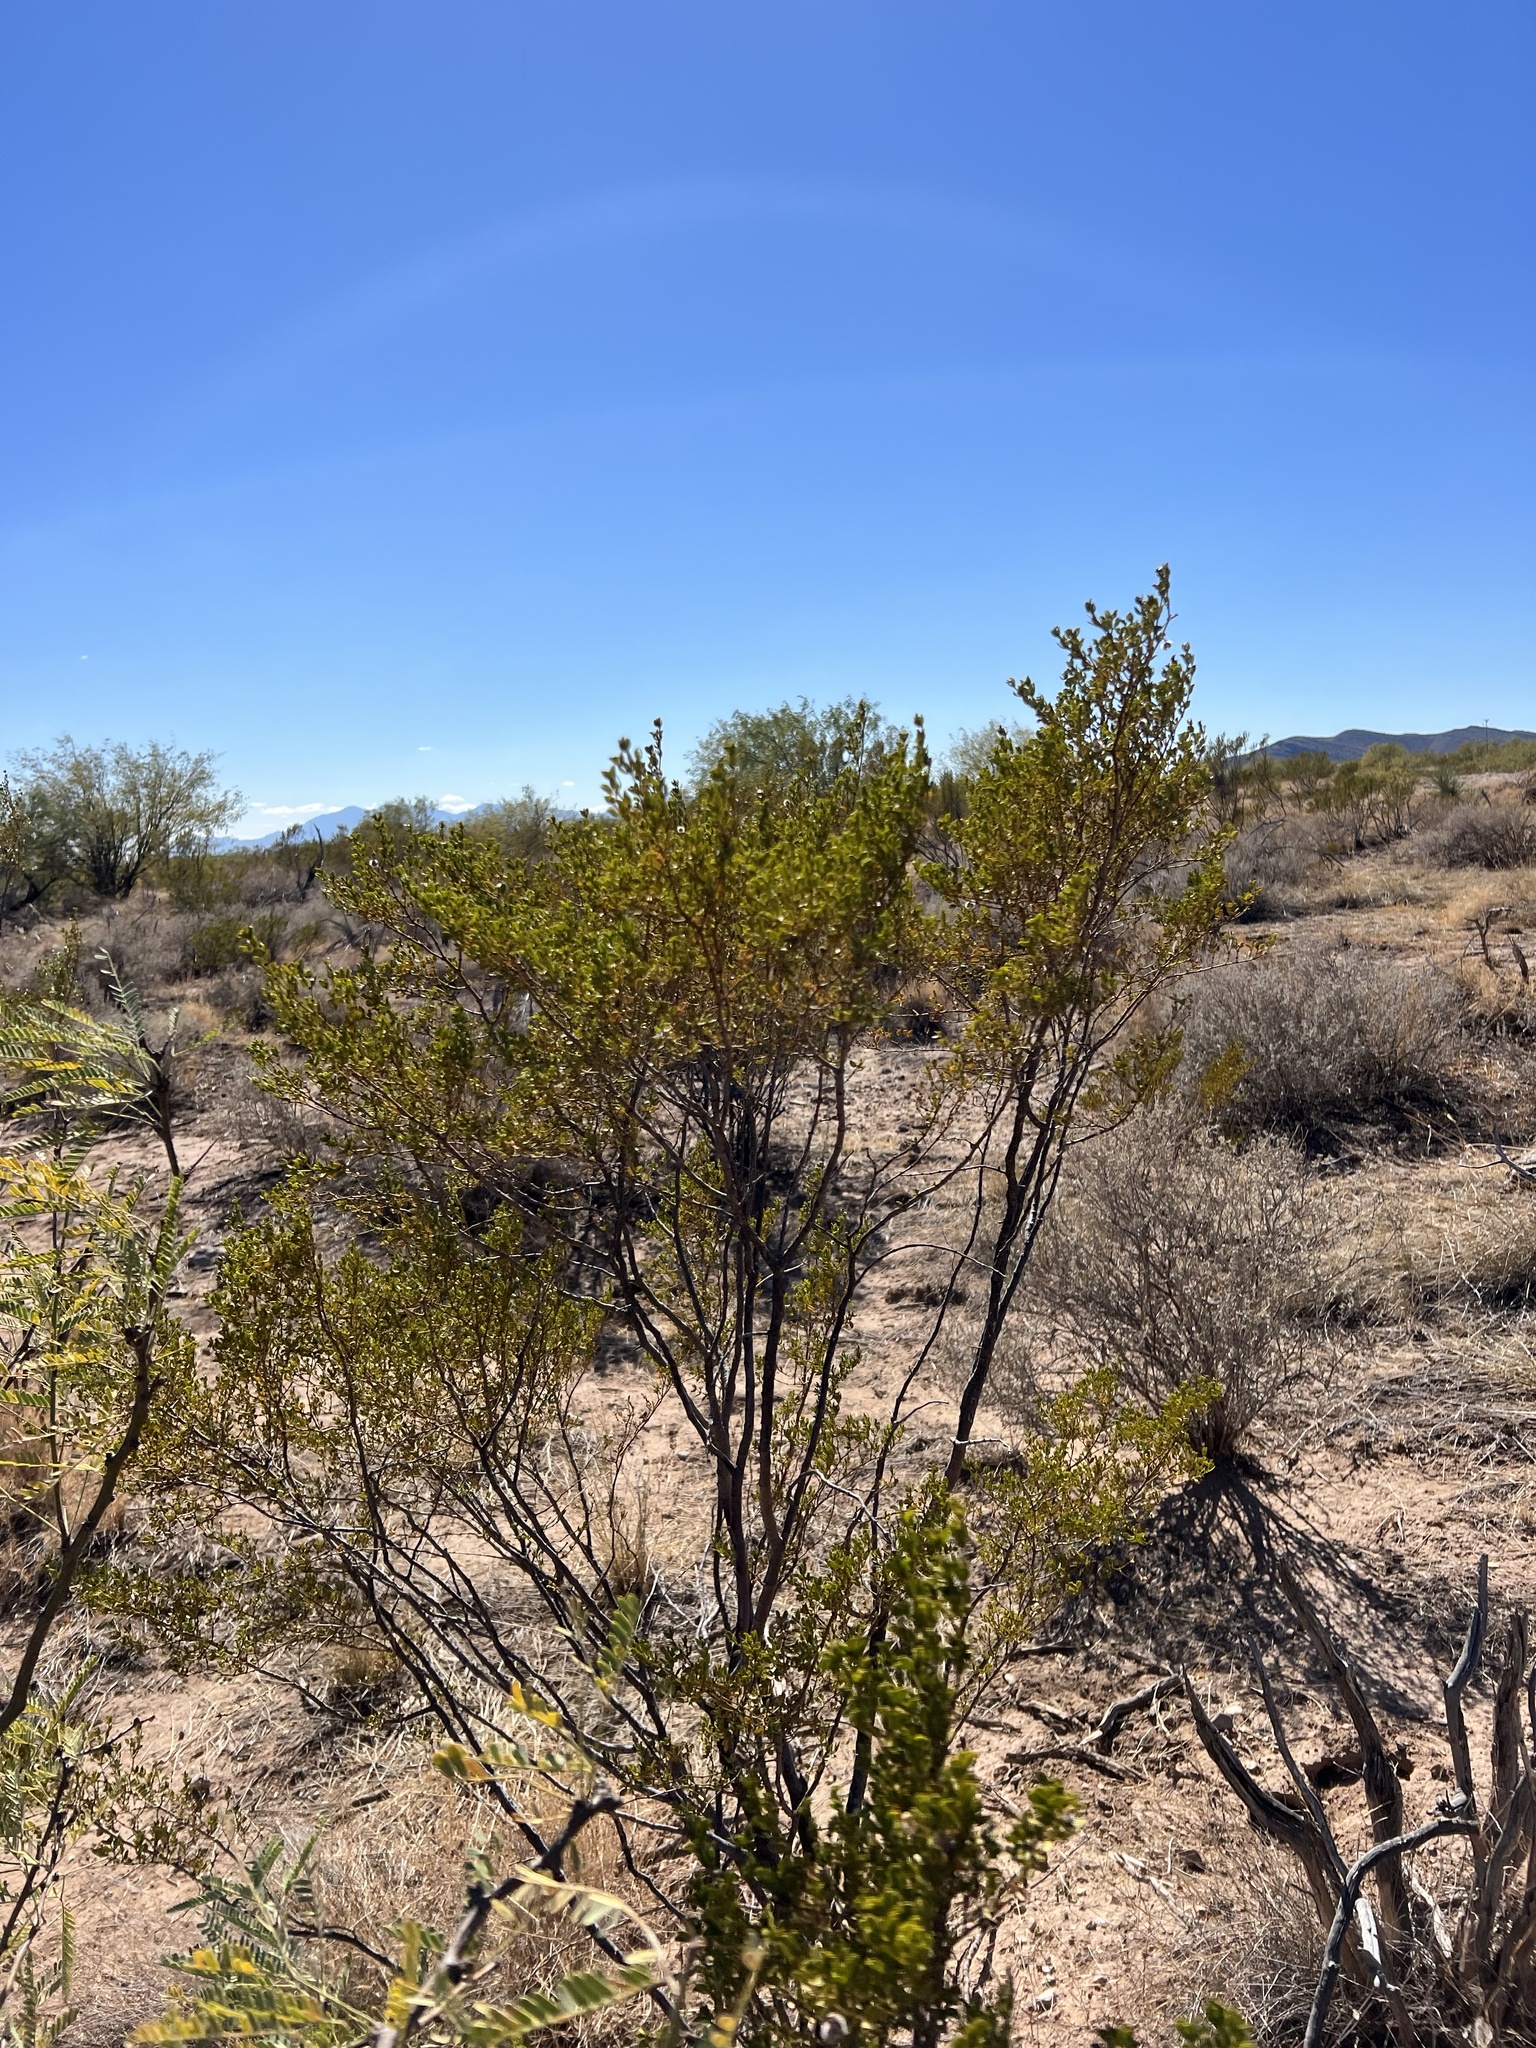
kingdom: Plantae
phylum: Tracheophyta
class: Magnoliopsida
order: Zygophyllales
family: Zygophyllaceae
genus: Larrea
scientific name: Larrea tridentata
